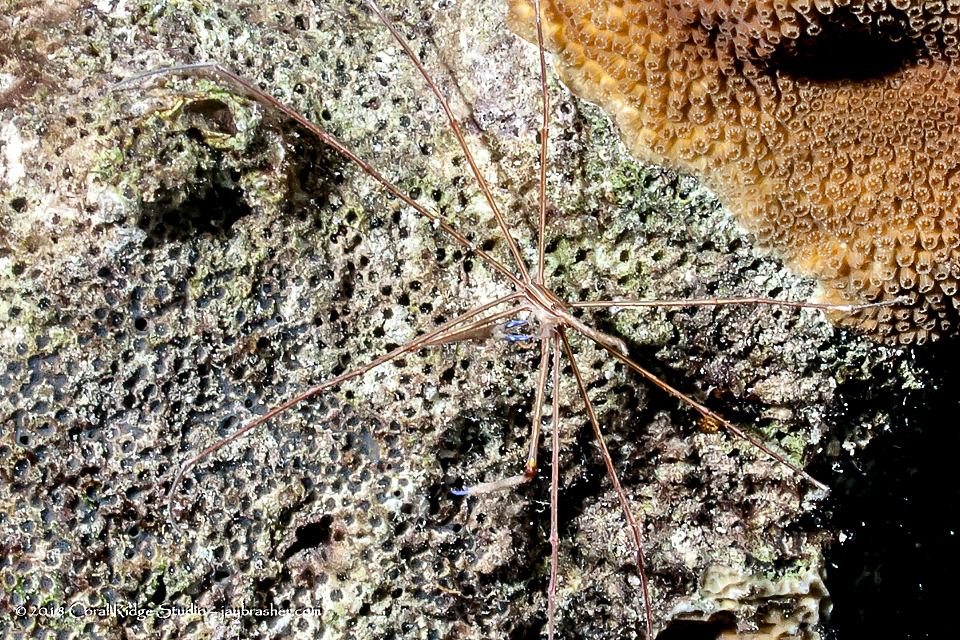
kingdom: Animalia
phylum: Arthropoda
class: Malacostraca
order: Decapoda
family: Inachoididae
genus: Stenorhynchus
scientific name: Stenorhynchus seticornis
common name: Arrow crab
